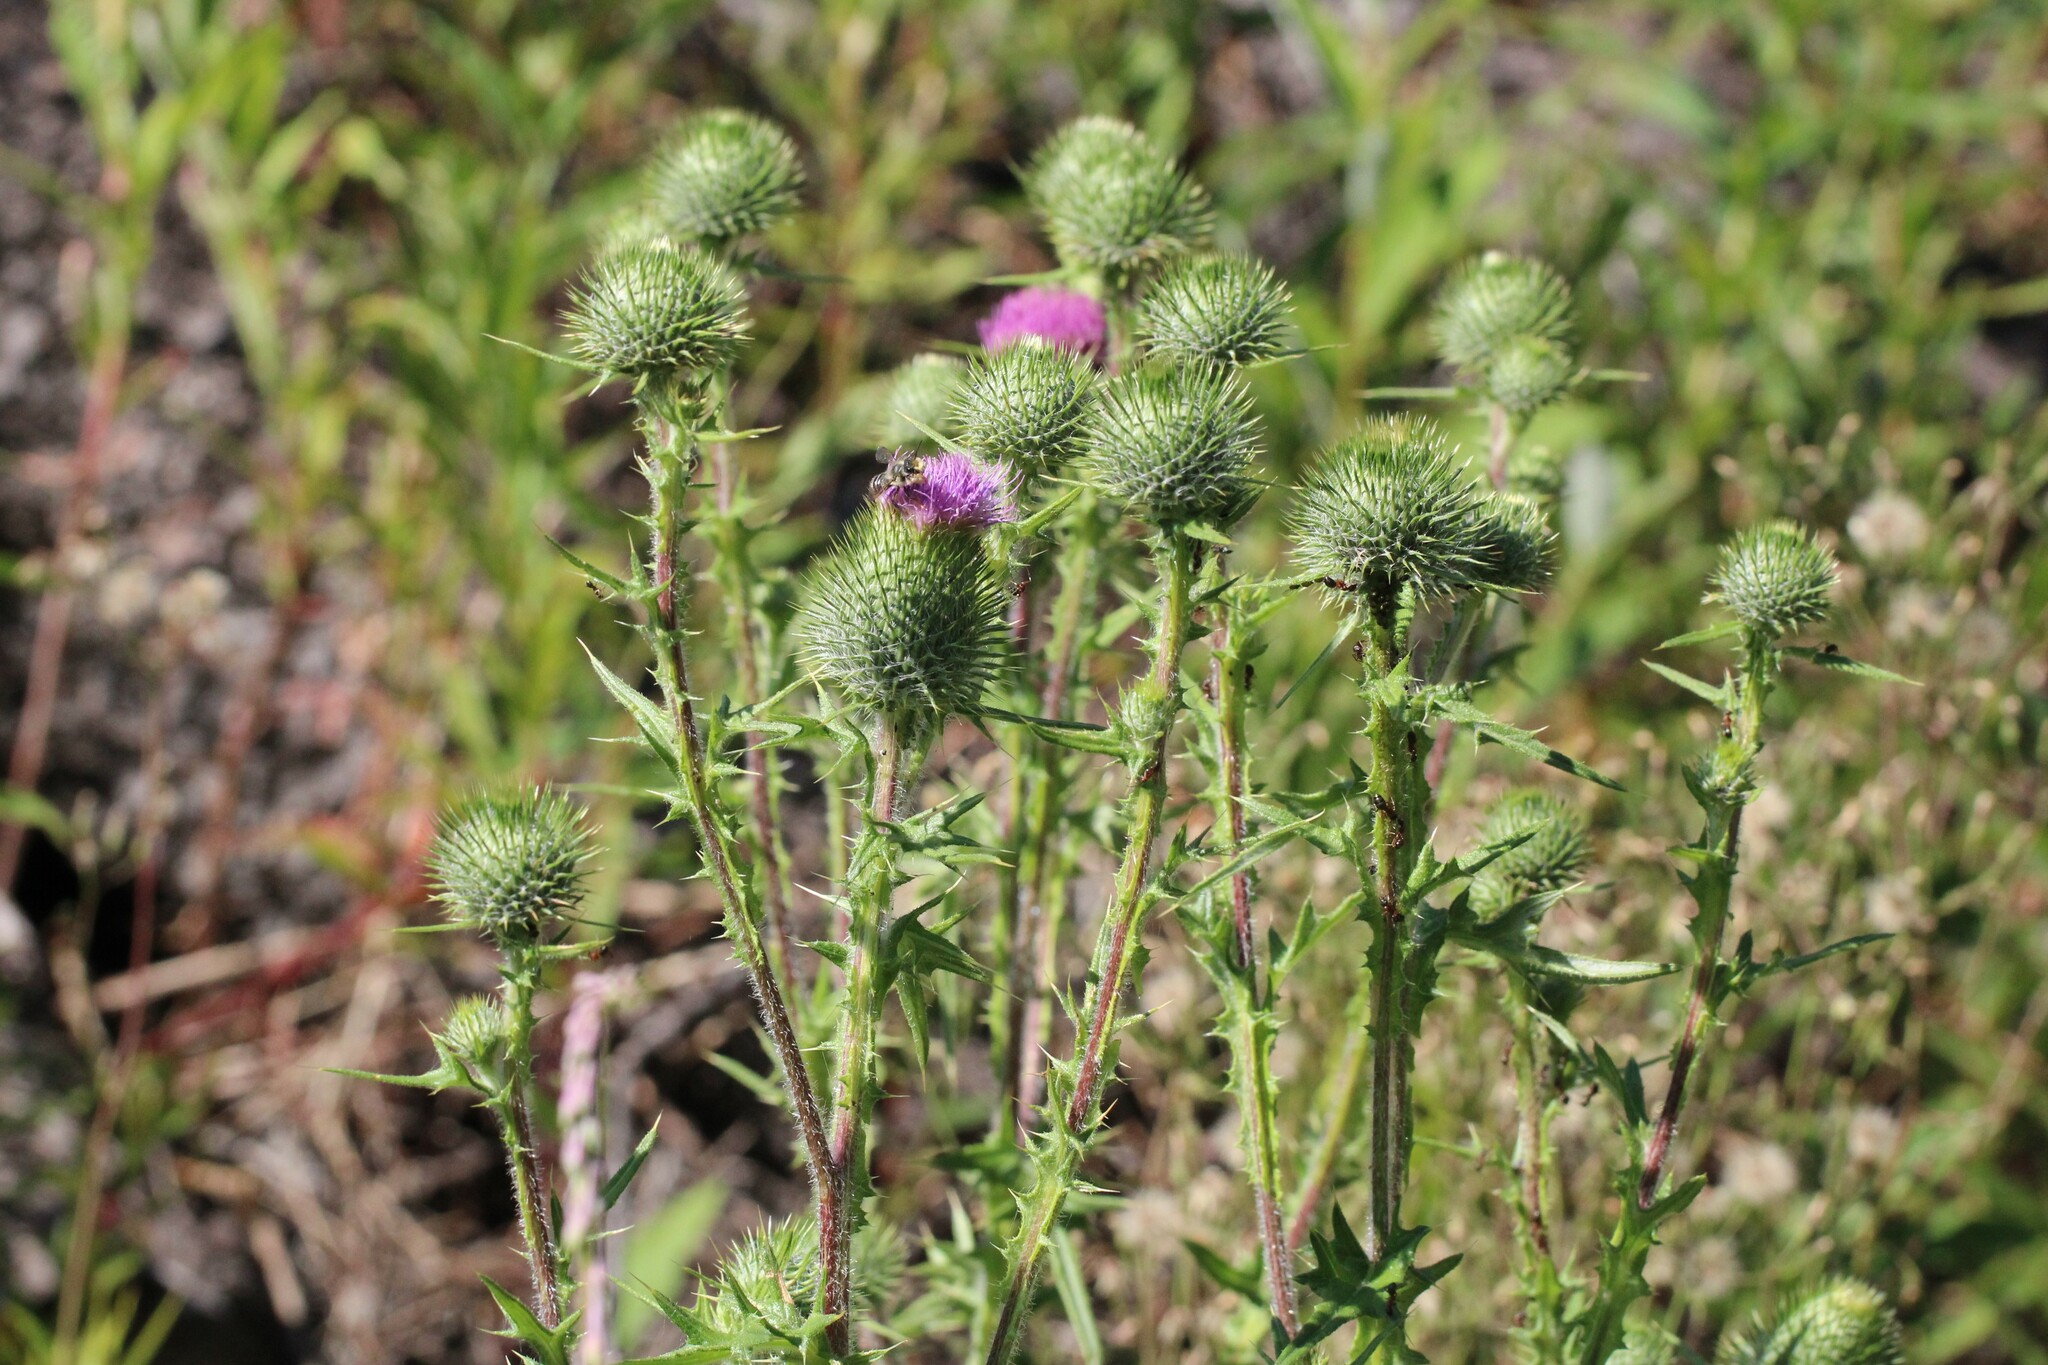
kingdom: Plantae
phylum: Tracheophyta
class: Magnoliopsida
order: Asterales
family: Asteraceae
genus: Cirsium
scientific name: Cirsium vulgare
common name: Bull thistle
